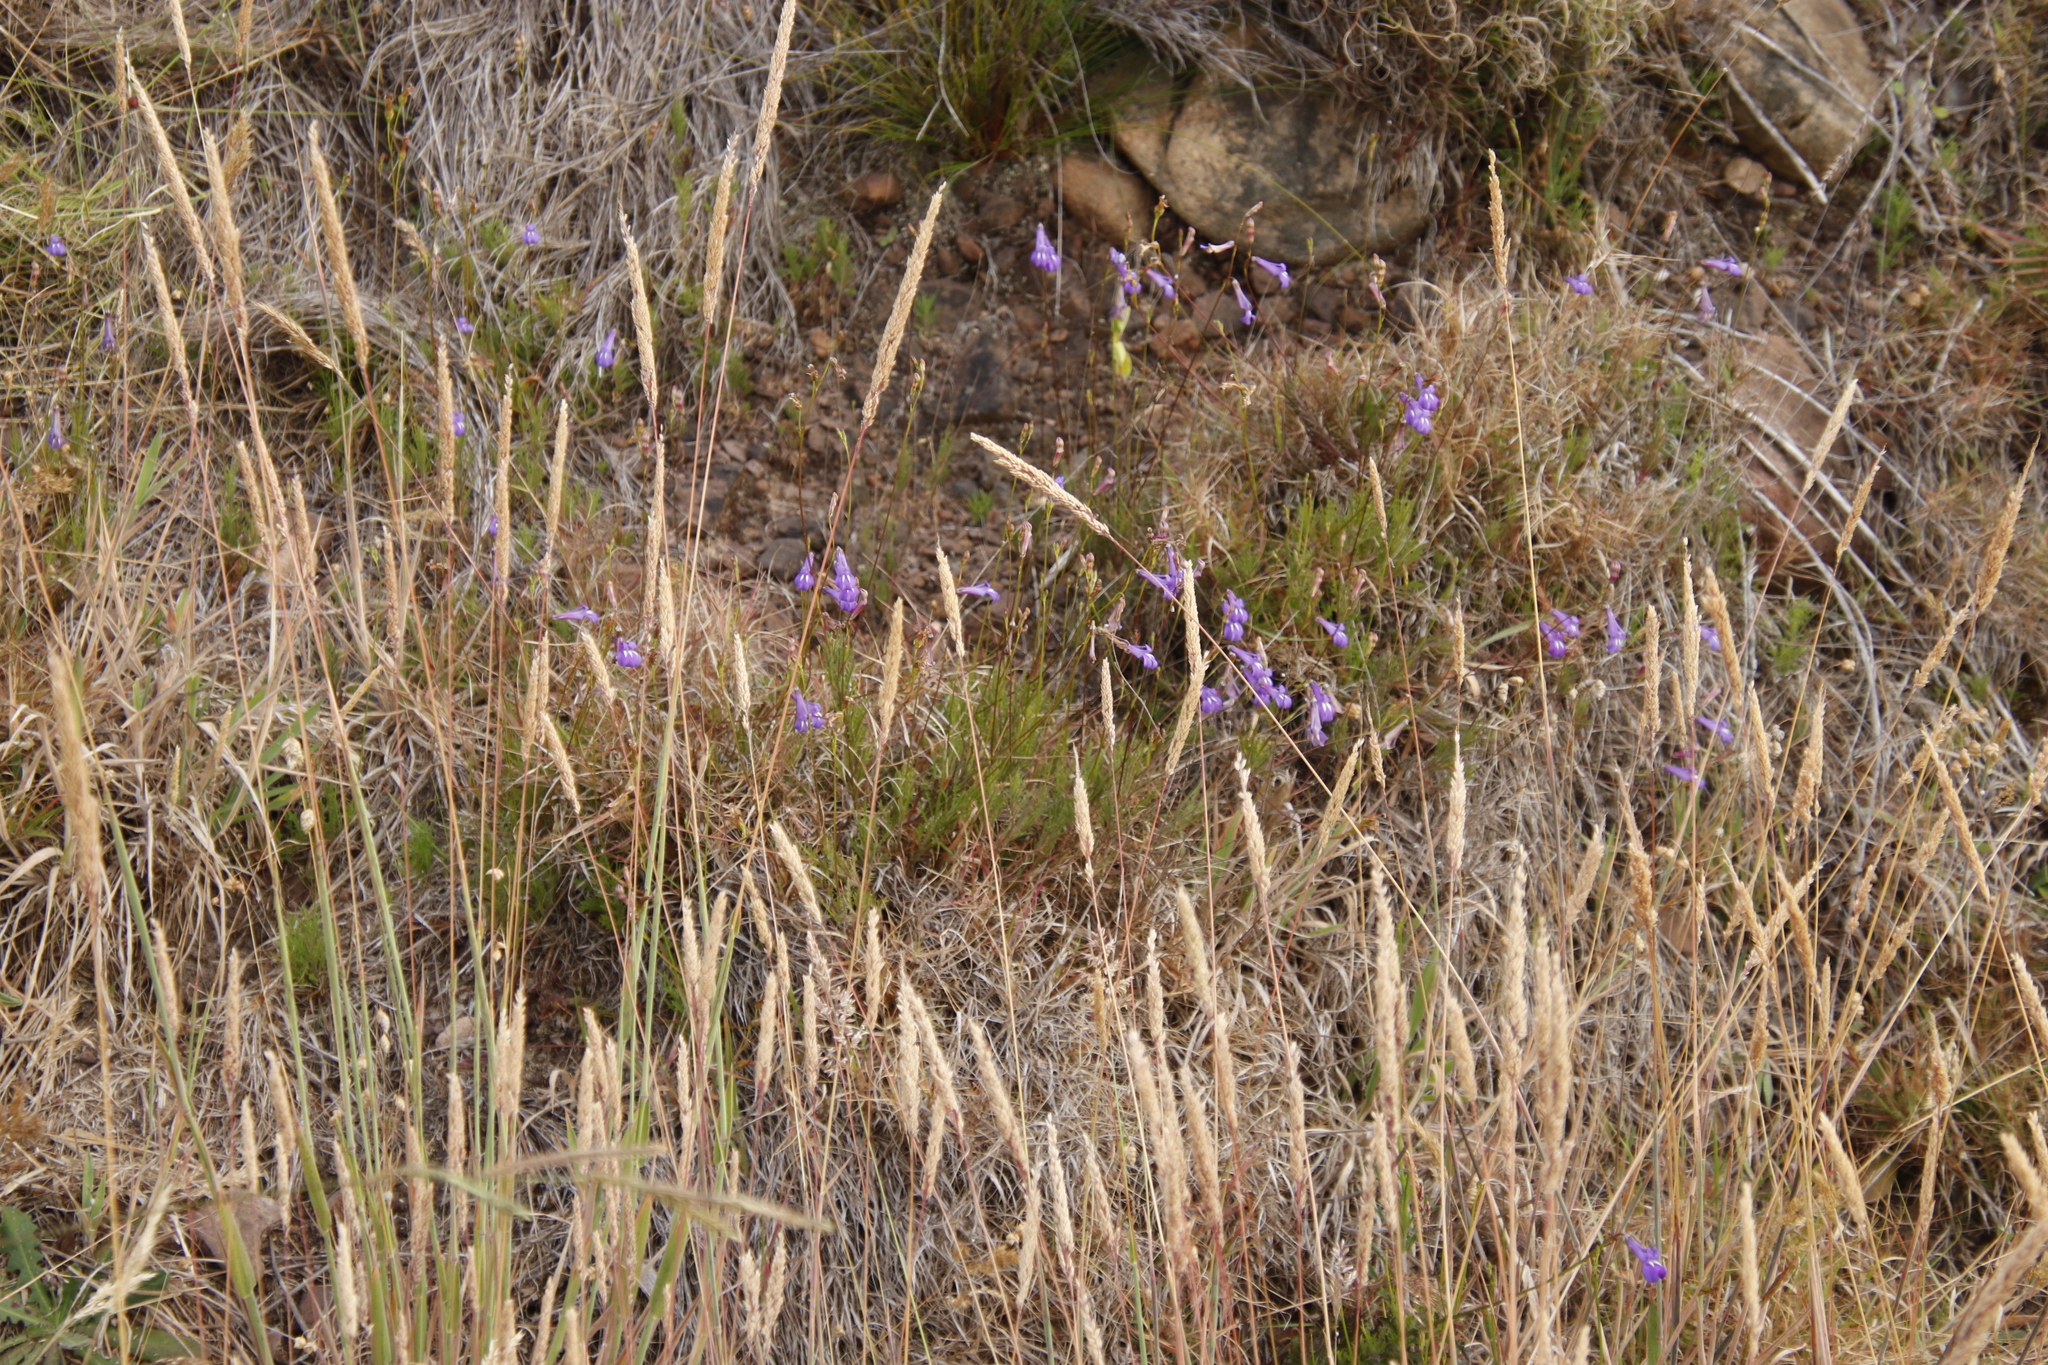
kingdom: Plantae
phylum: Tracheophyta
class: Magnoliopsida
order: Asterales
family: Campanulaceae
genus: Lobelia
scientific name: Lobelia coronopifolia
